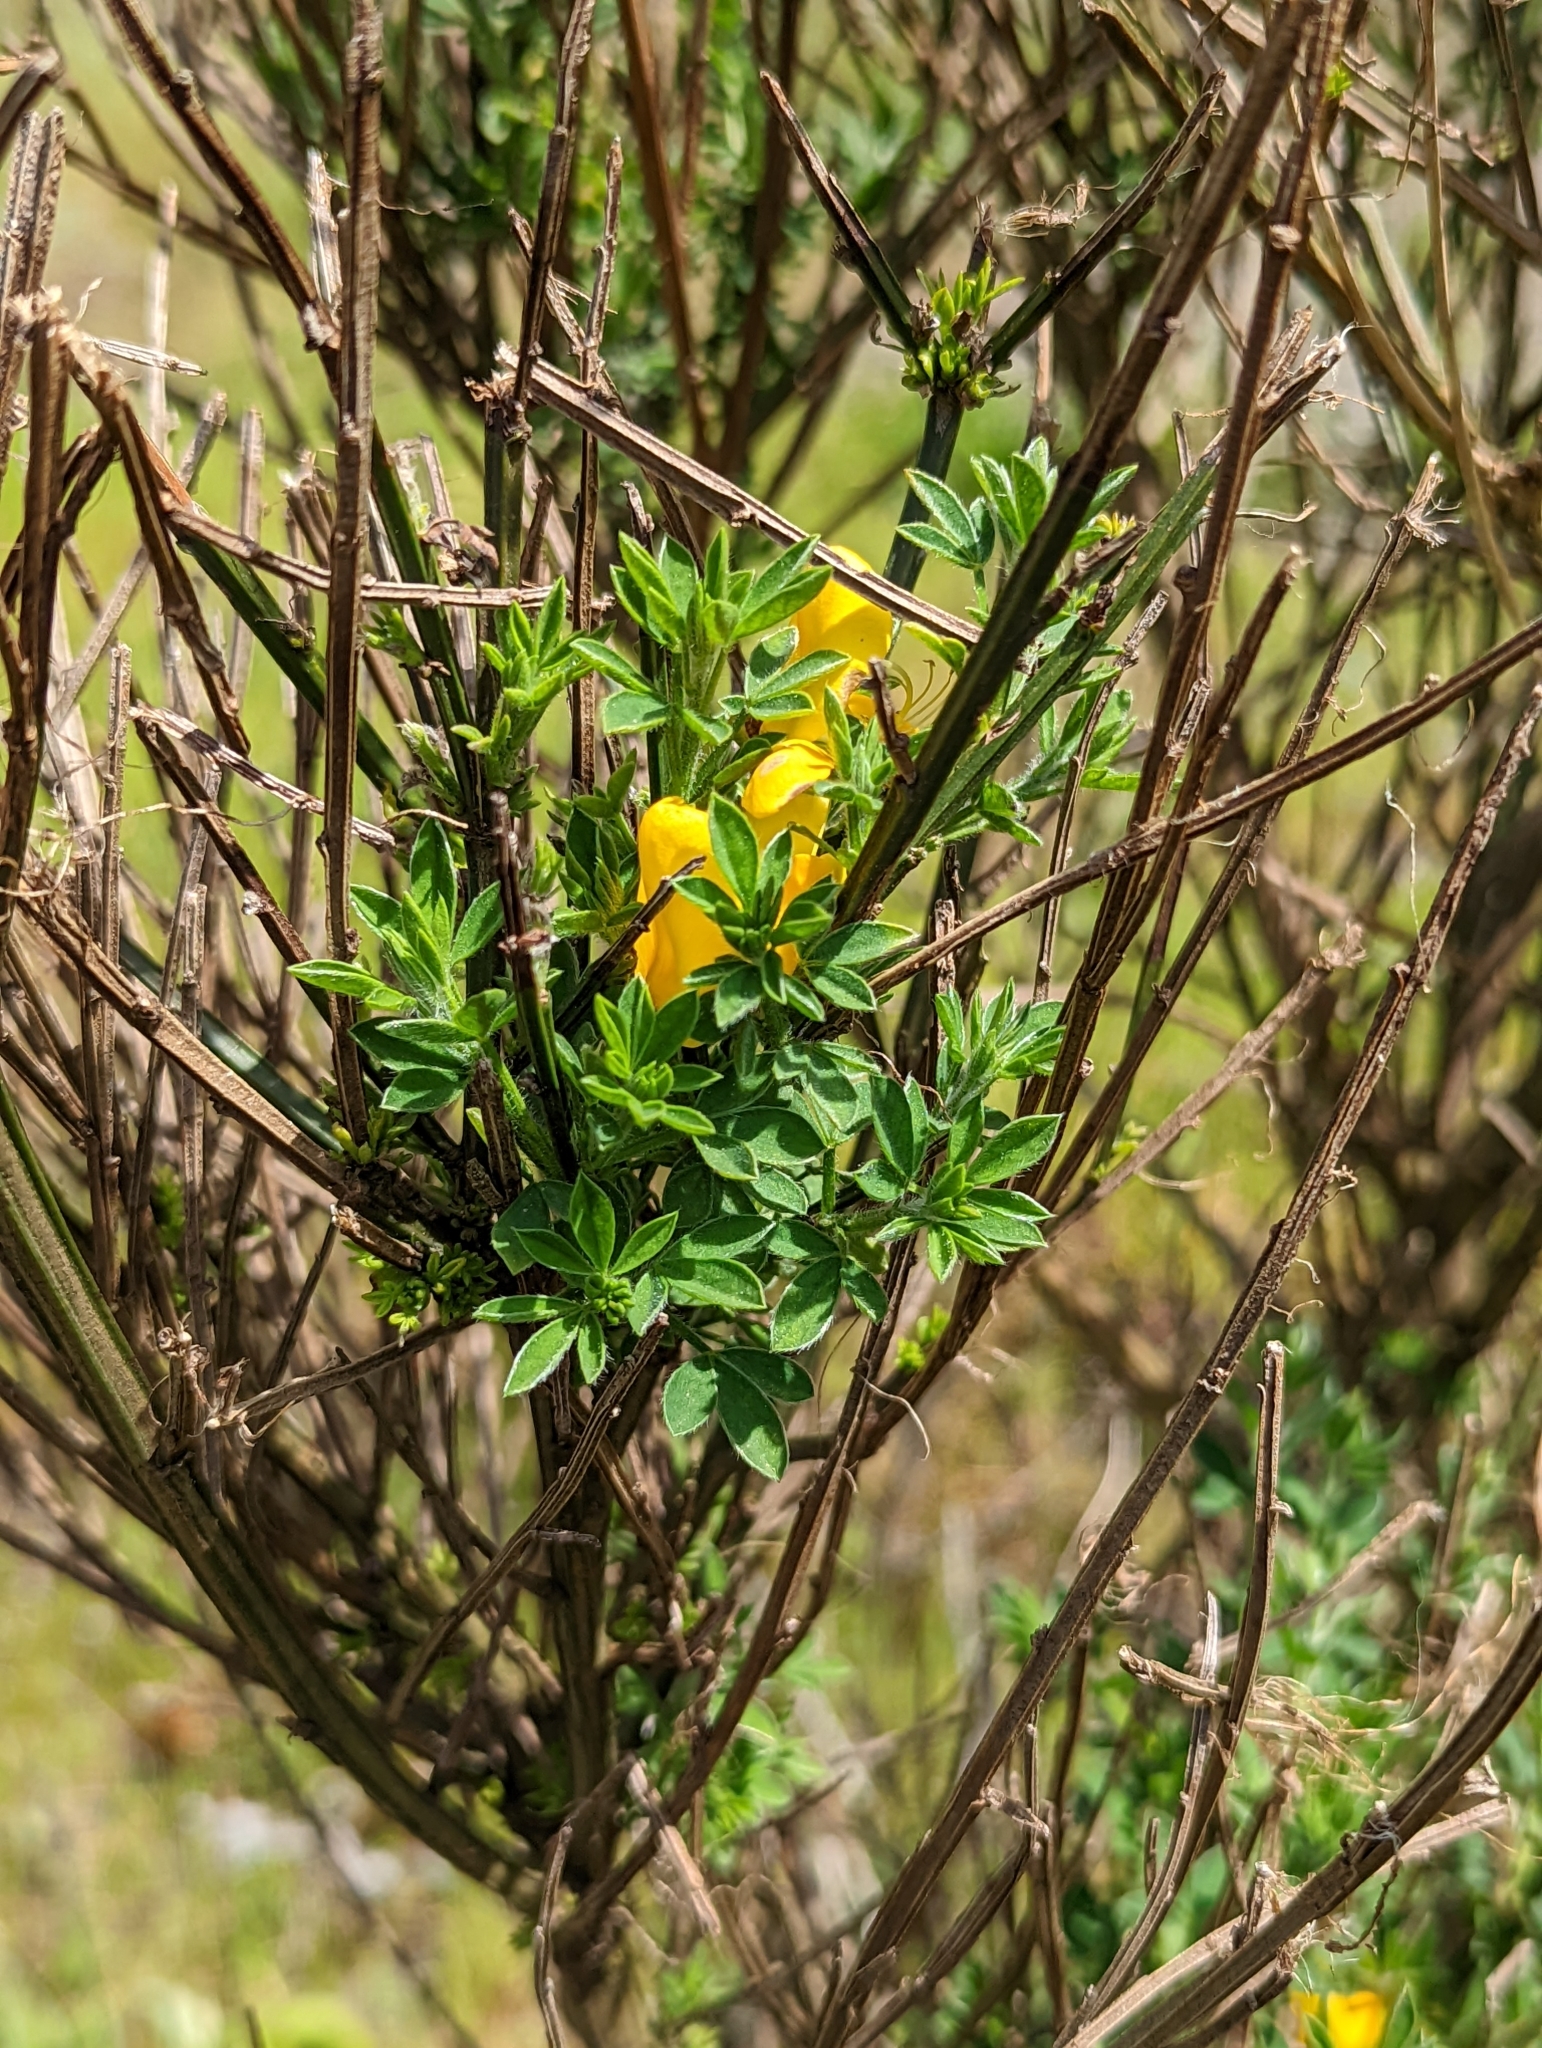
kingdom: Plantae
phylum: Tracheophyta
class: Magnoliopsida
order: Fabales
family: Fabaceae
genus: Cytisus
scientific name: Cytisus scoparius
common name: Scotch broom
